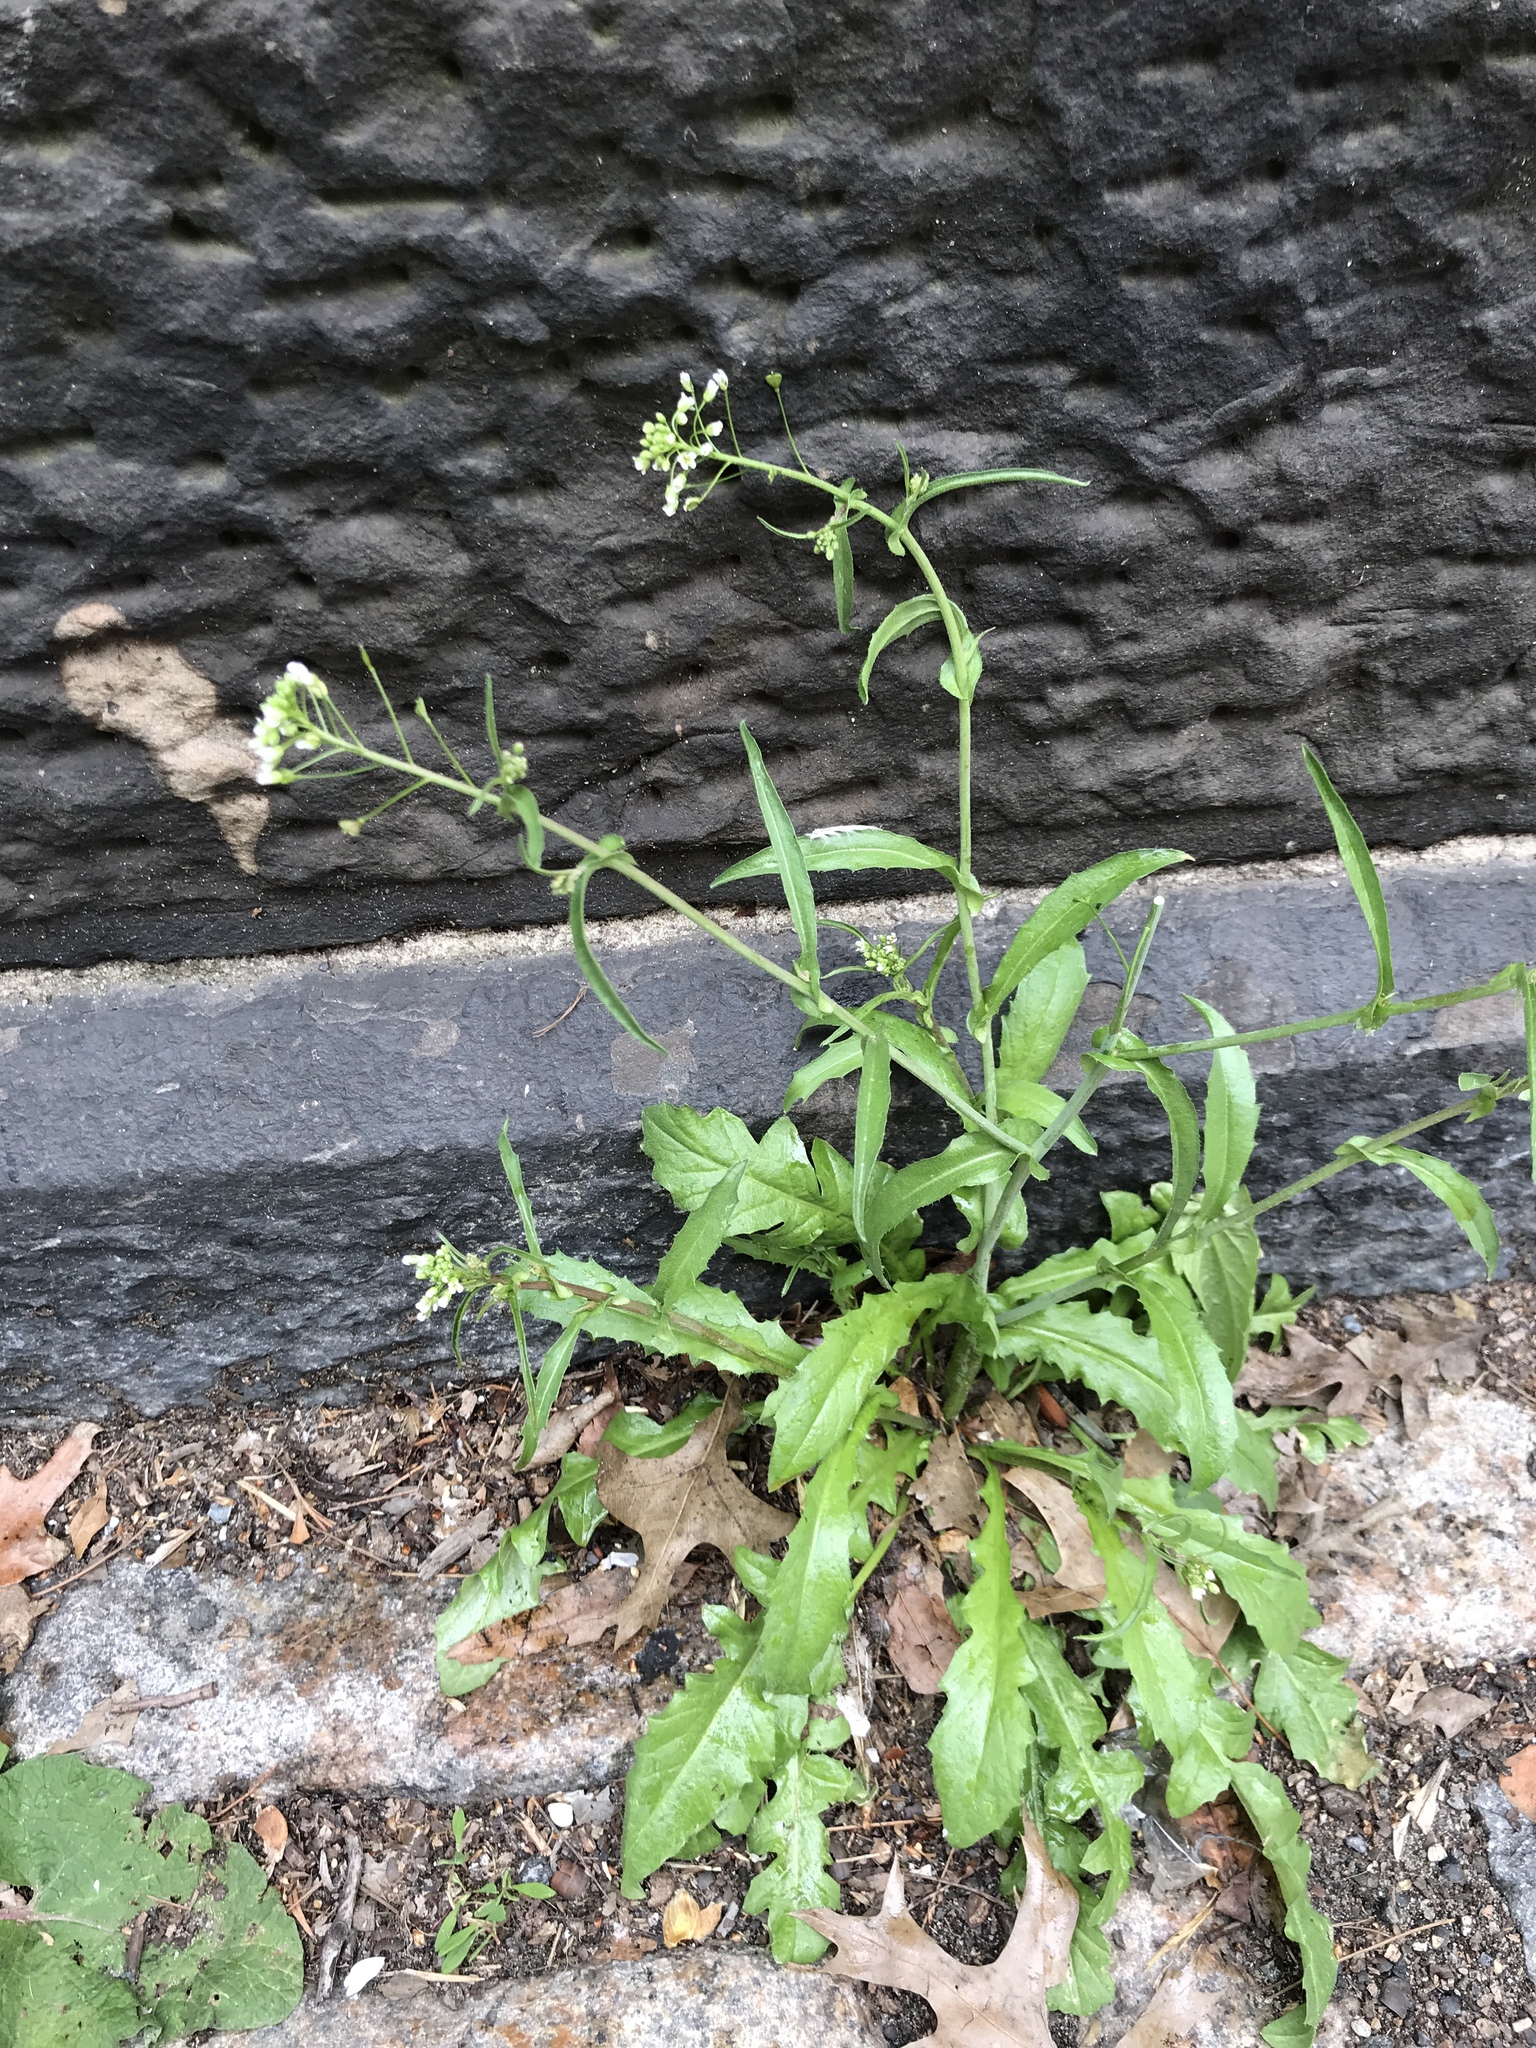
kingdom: Plantae
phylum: Tracheophyta
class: Magnoliopsida
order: Brassicales
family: Brassicaceae
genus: Capsella
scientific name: Capsella bursa-pastoris
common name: Shepherd's purse
